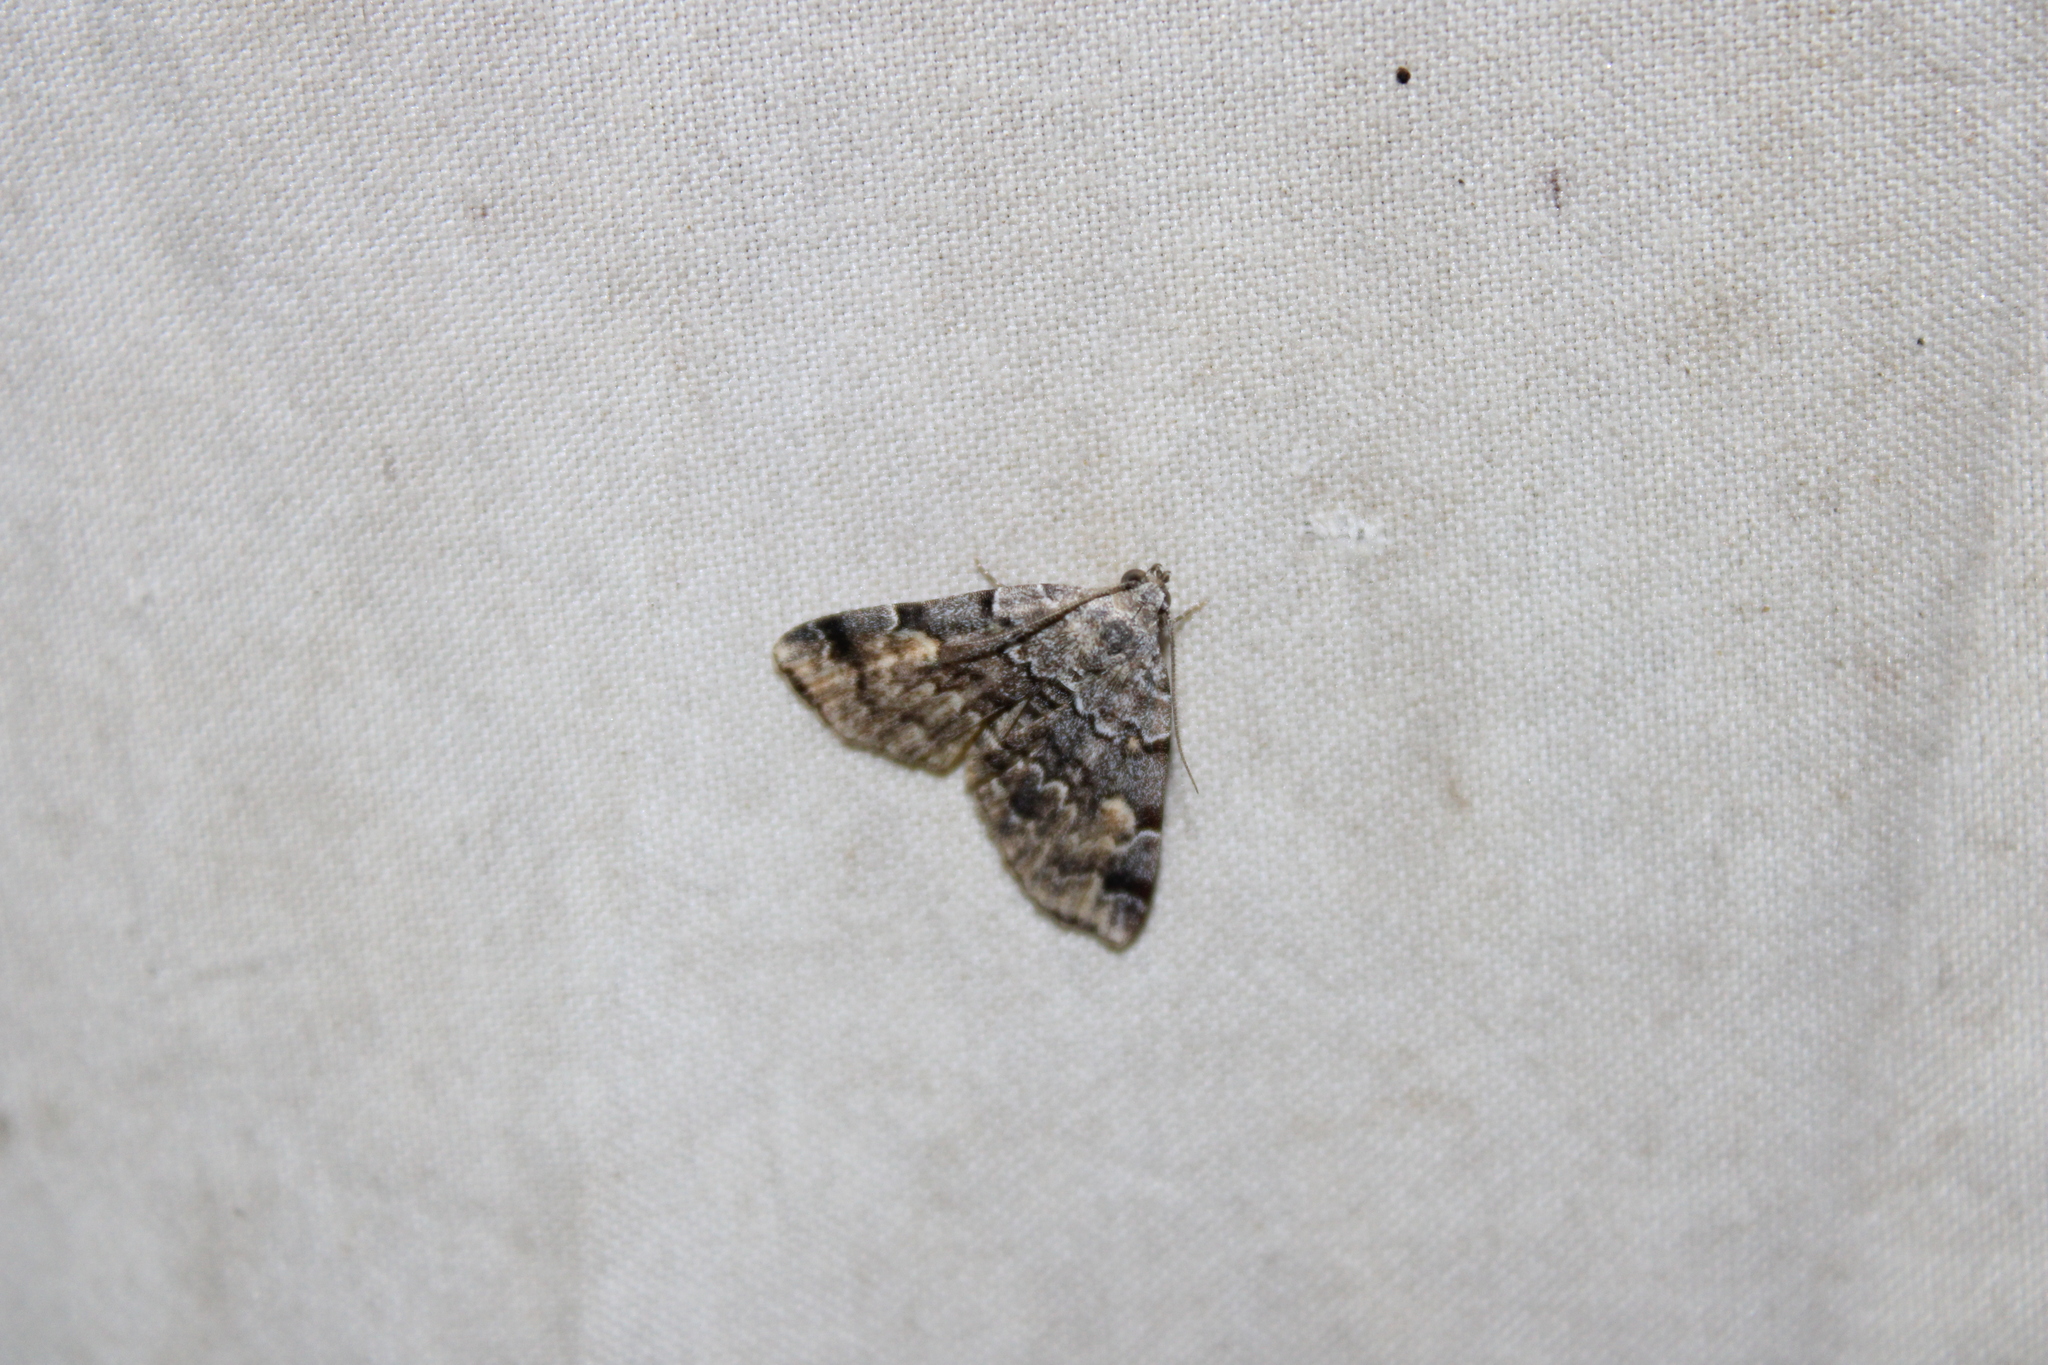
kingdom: Animalia
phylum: Arthropoda
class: Insecta
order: Lepidoptera
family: Erebidae
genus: Idia
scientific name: Idia americalis
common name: American idia moth
